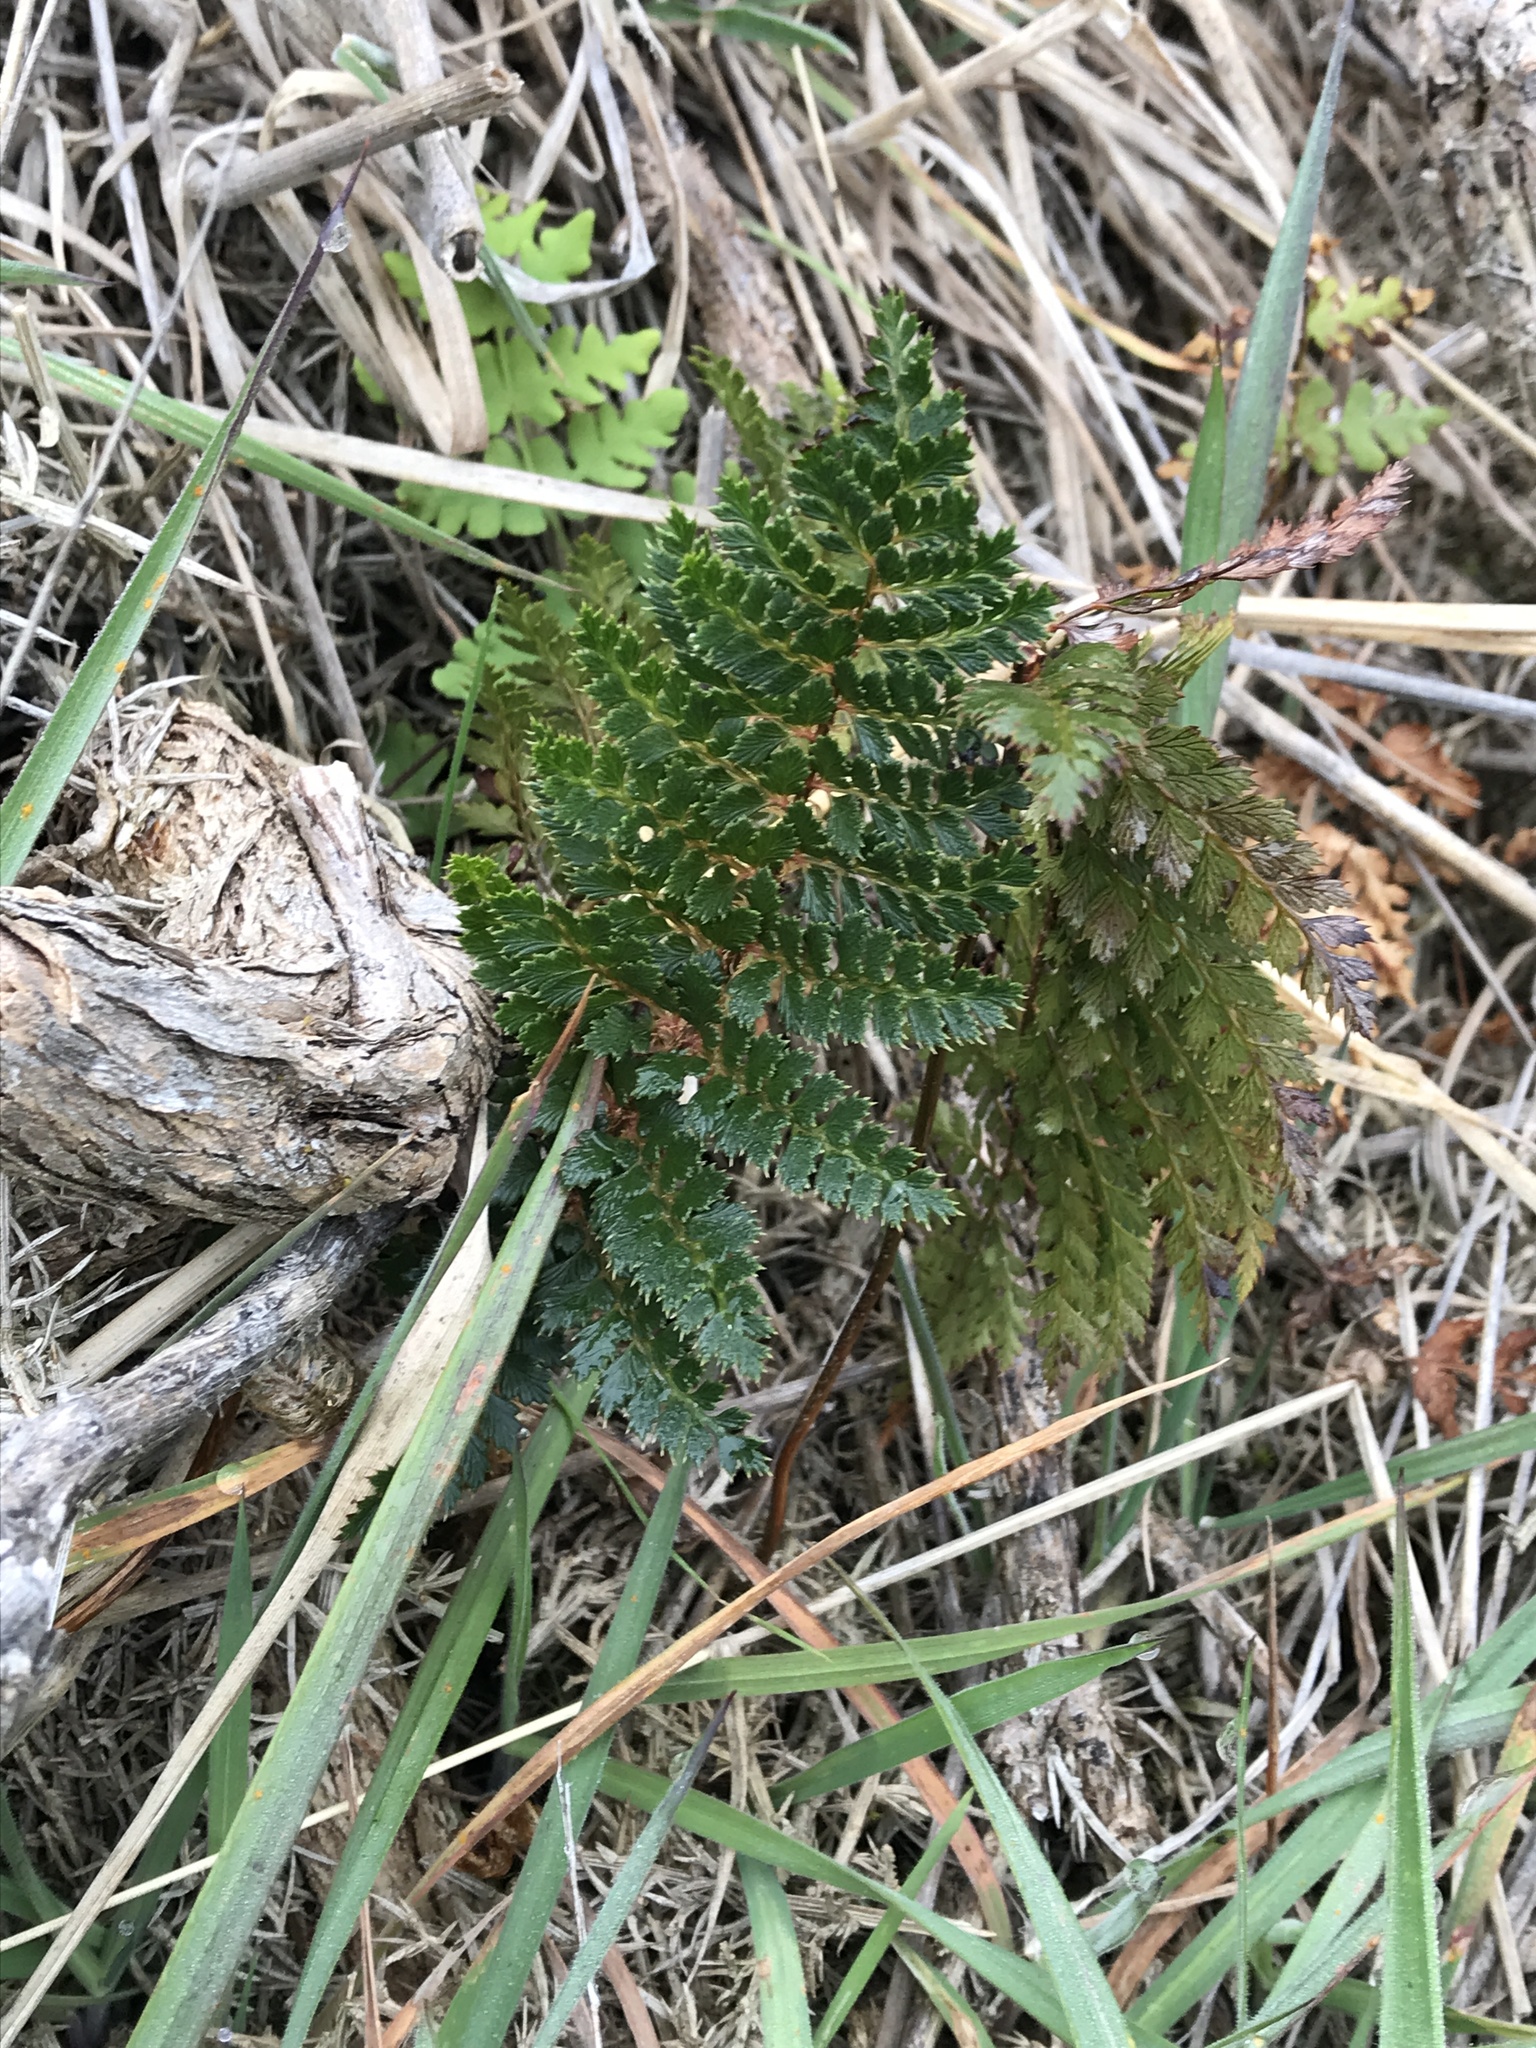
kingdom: Plantae
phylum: Tracheophyta
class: Polypodiopsida
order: Polypodiales
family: Dryopteridaceae
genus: Polystichum
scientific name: Polystichum vestitum
